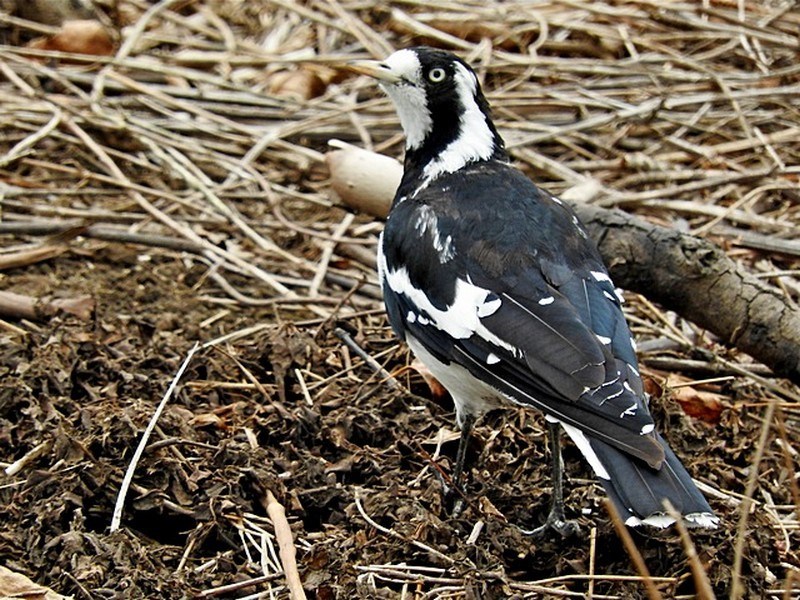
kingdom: Animalia
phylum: Chordata
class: Aves
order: Passeriformes
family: Monarchidae
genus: Grallina
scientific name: Grallina cyanoleuca
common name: Magpie-lark
